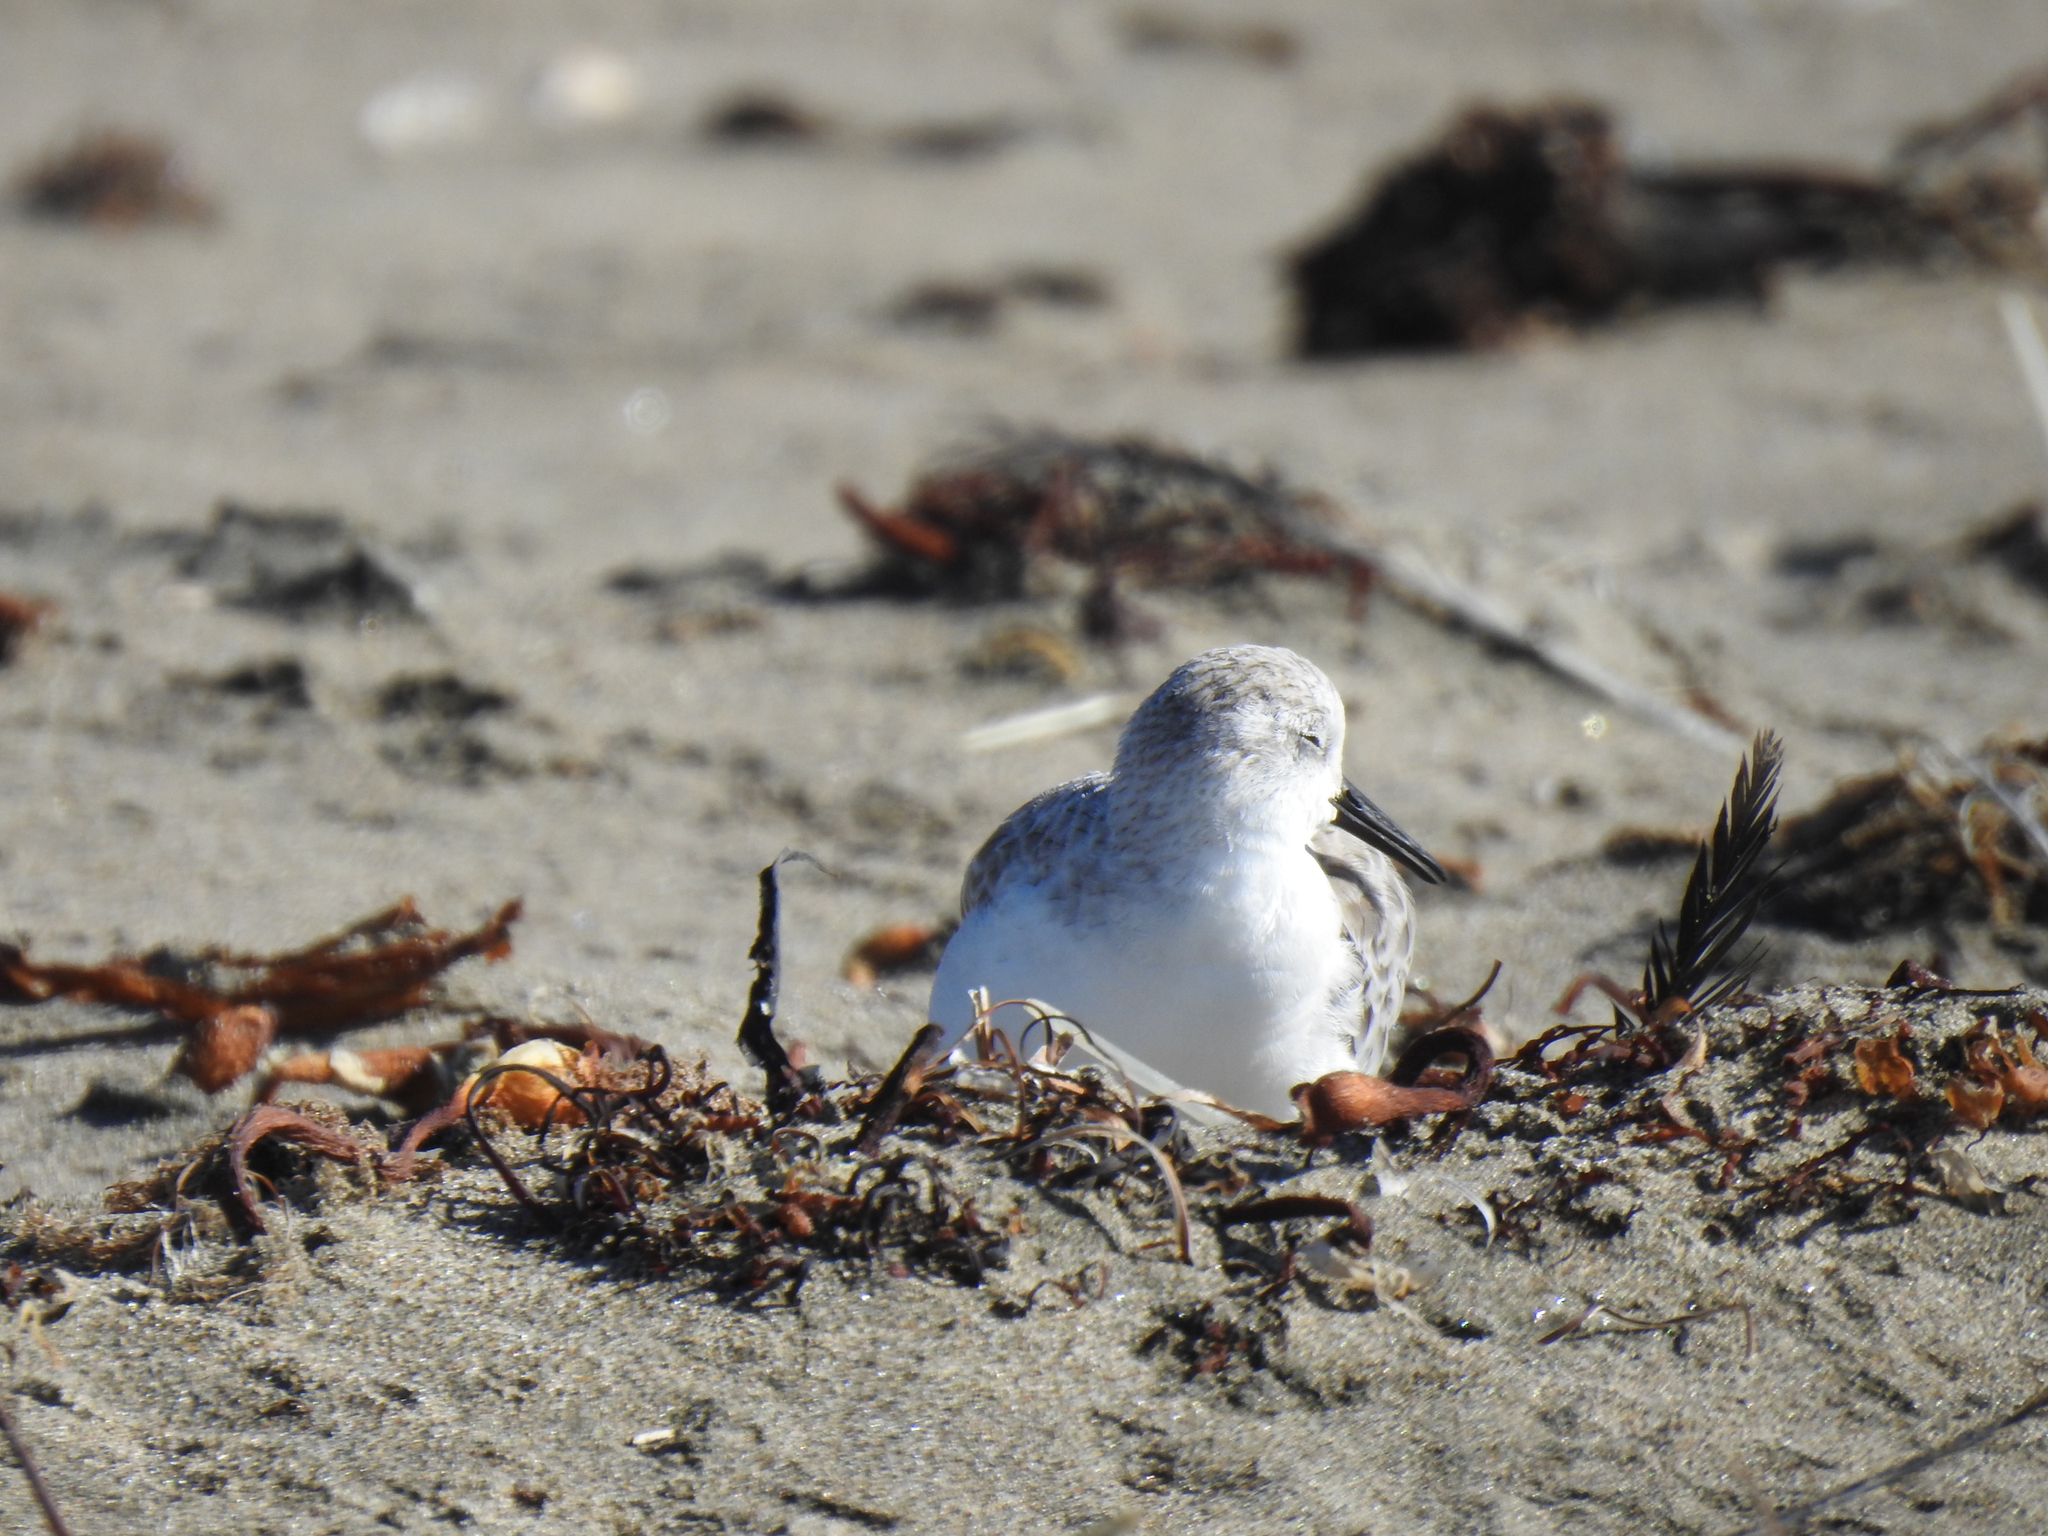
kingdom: Animalia
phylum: Chordata
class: Aves
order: Charadriiformes
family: Scolopacidae
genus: Calidris
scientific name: Calidris alba
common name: Sanderling
